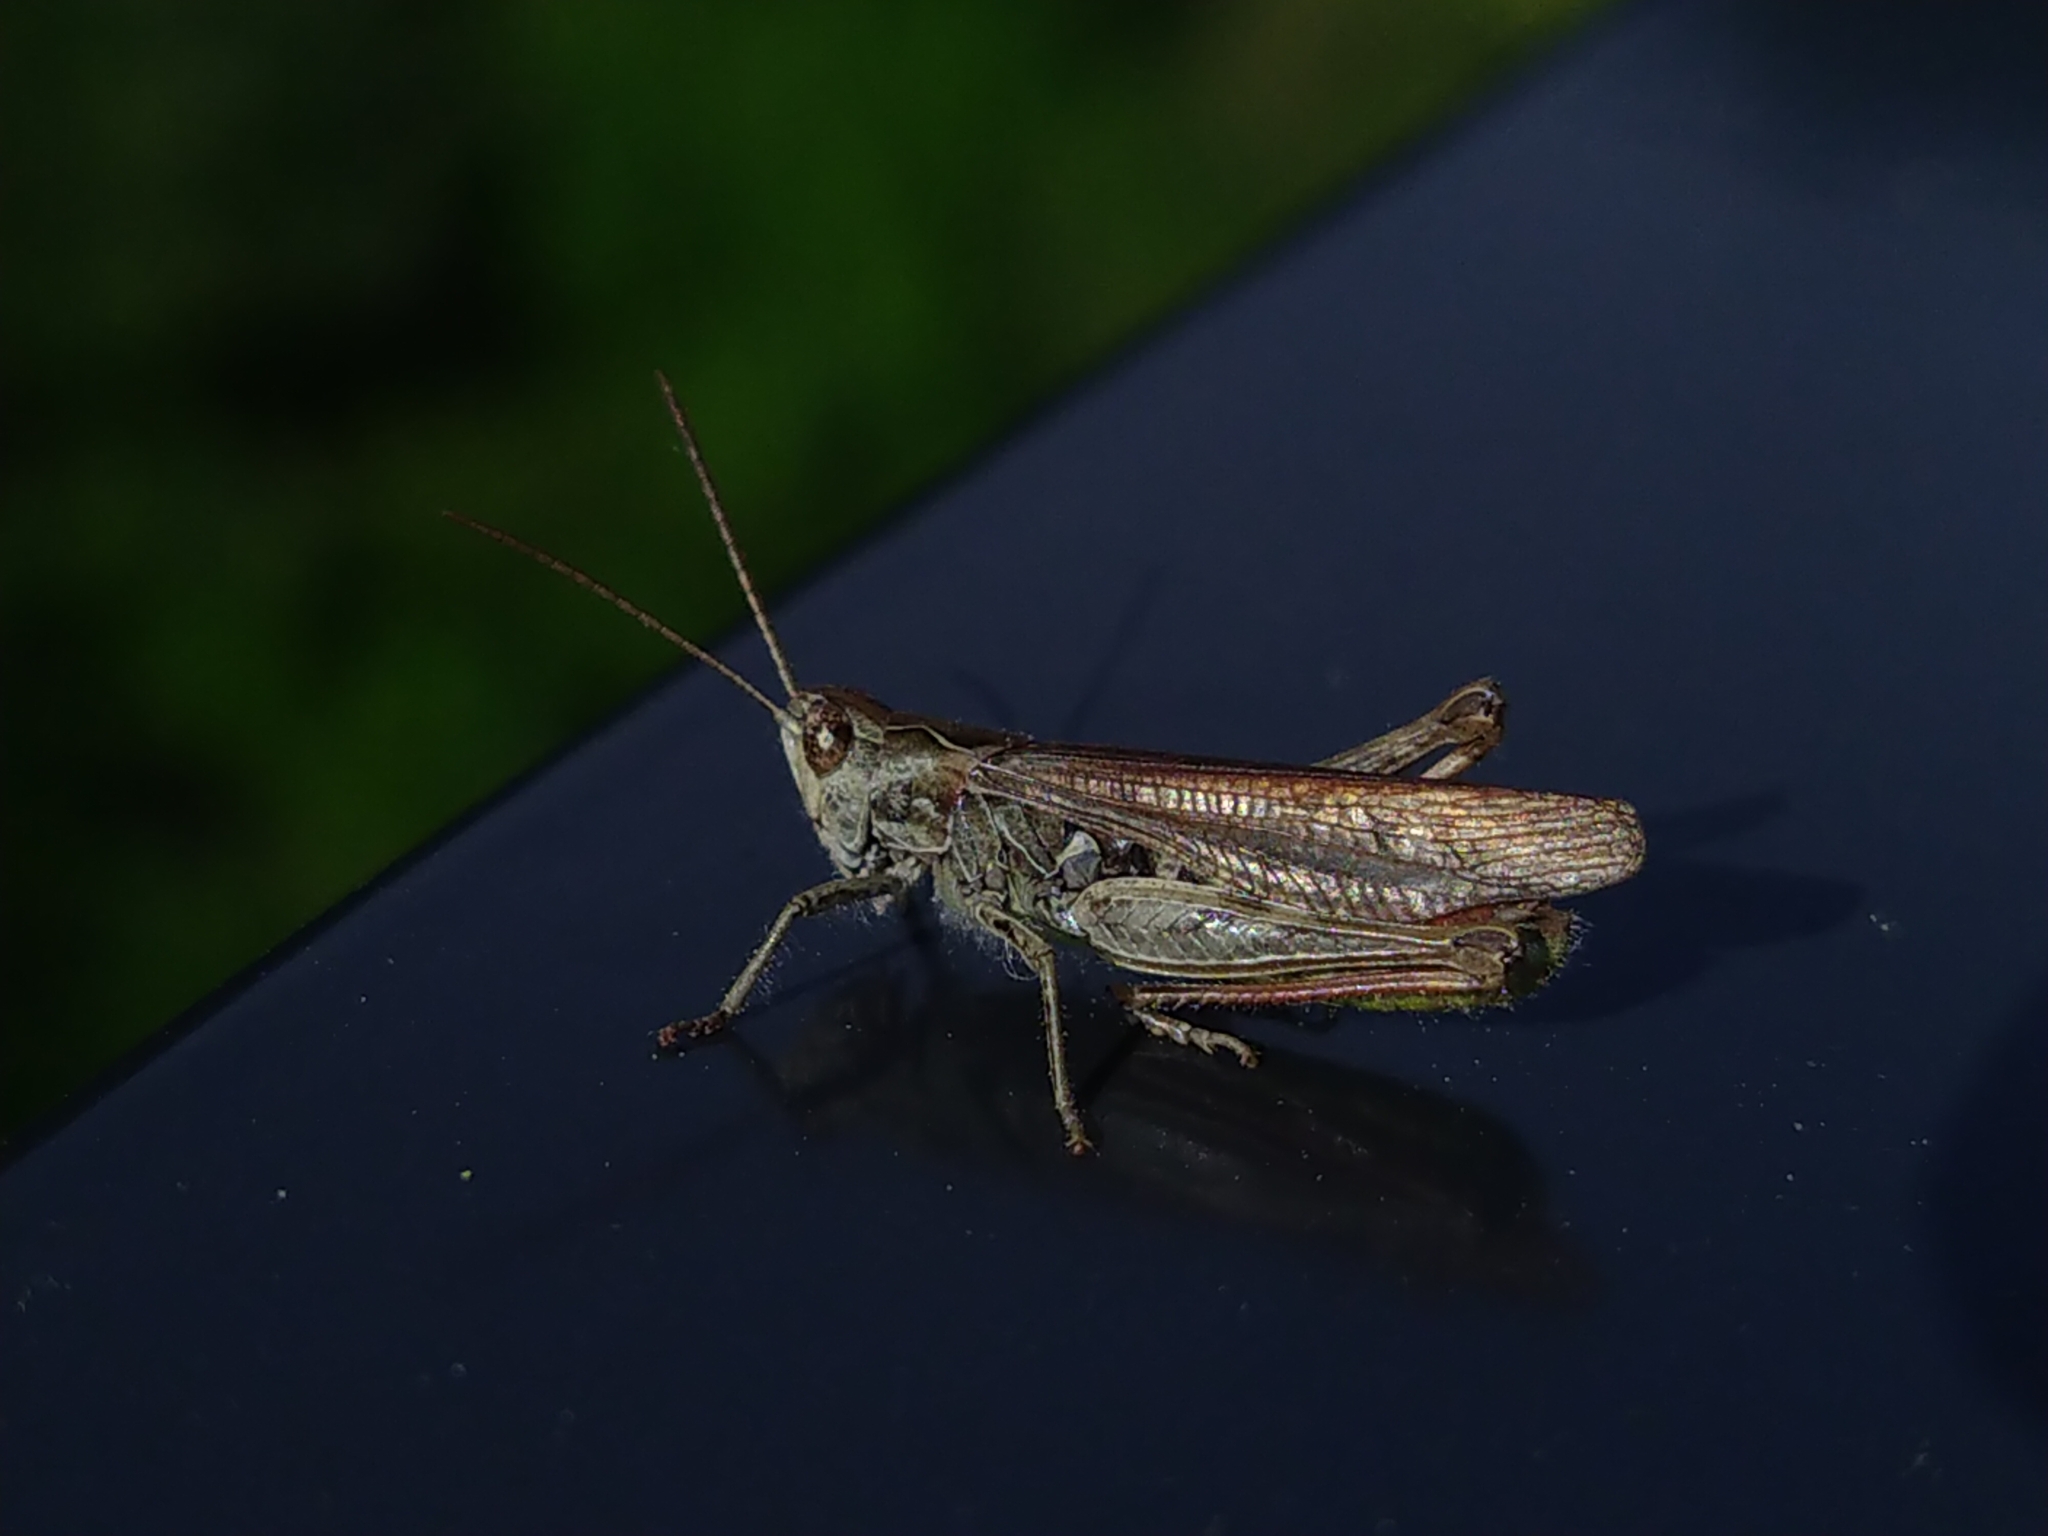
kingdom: Animalia
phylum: Arthropoda
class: Insecta
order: Orthoptera
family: Acrididae
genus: Chorthippus
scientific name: Chorthippus biguttulus
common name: Bow-winged grasshopper
